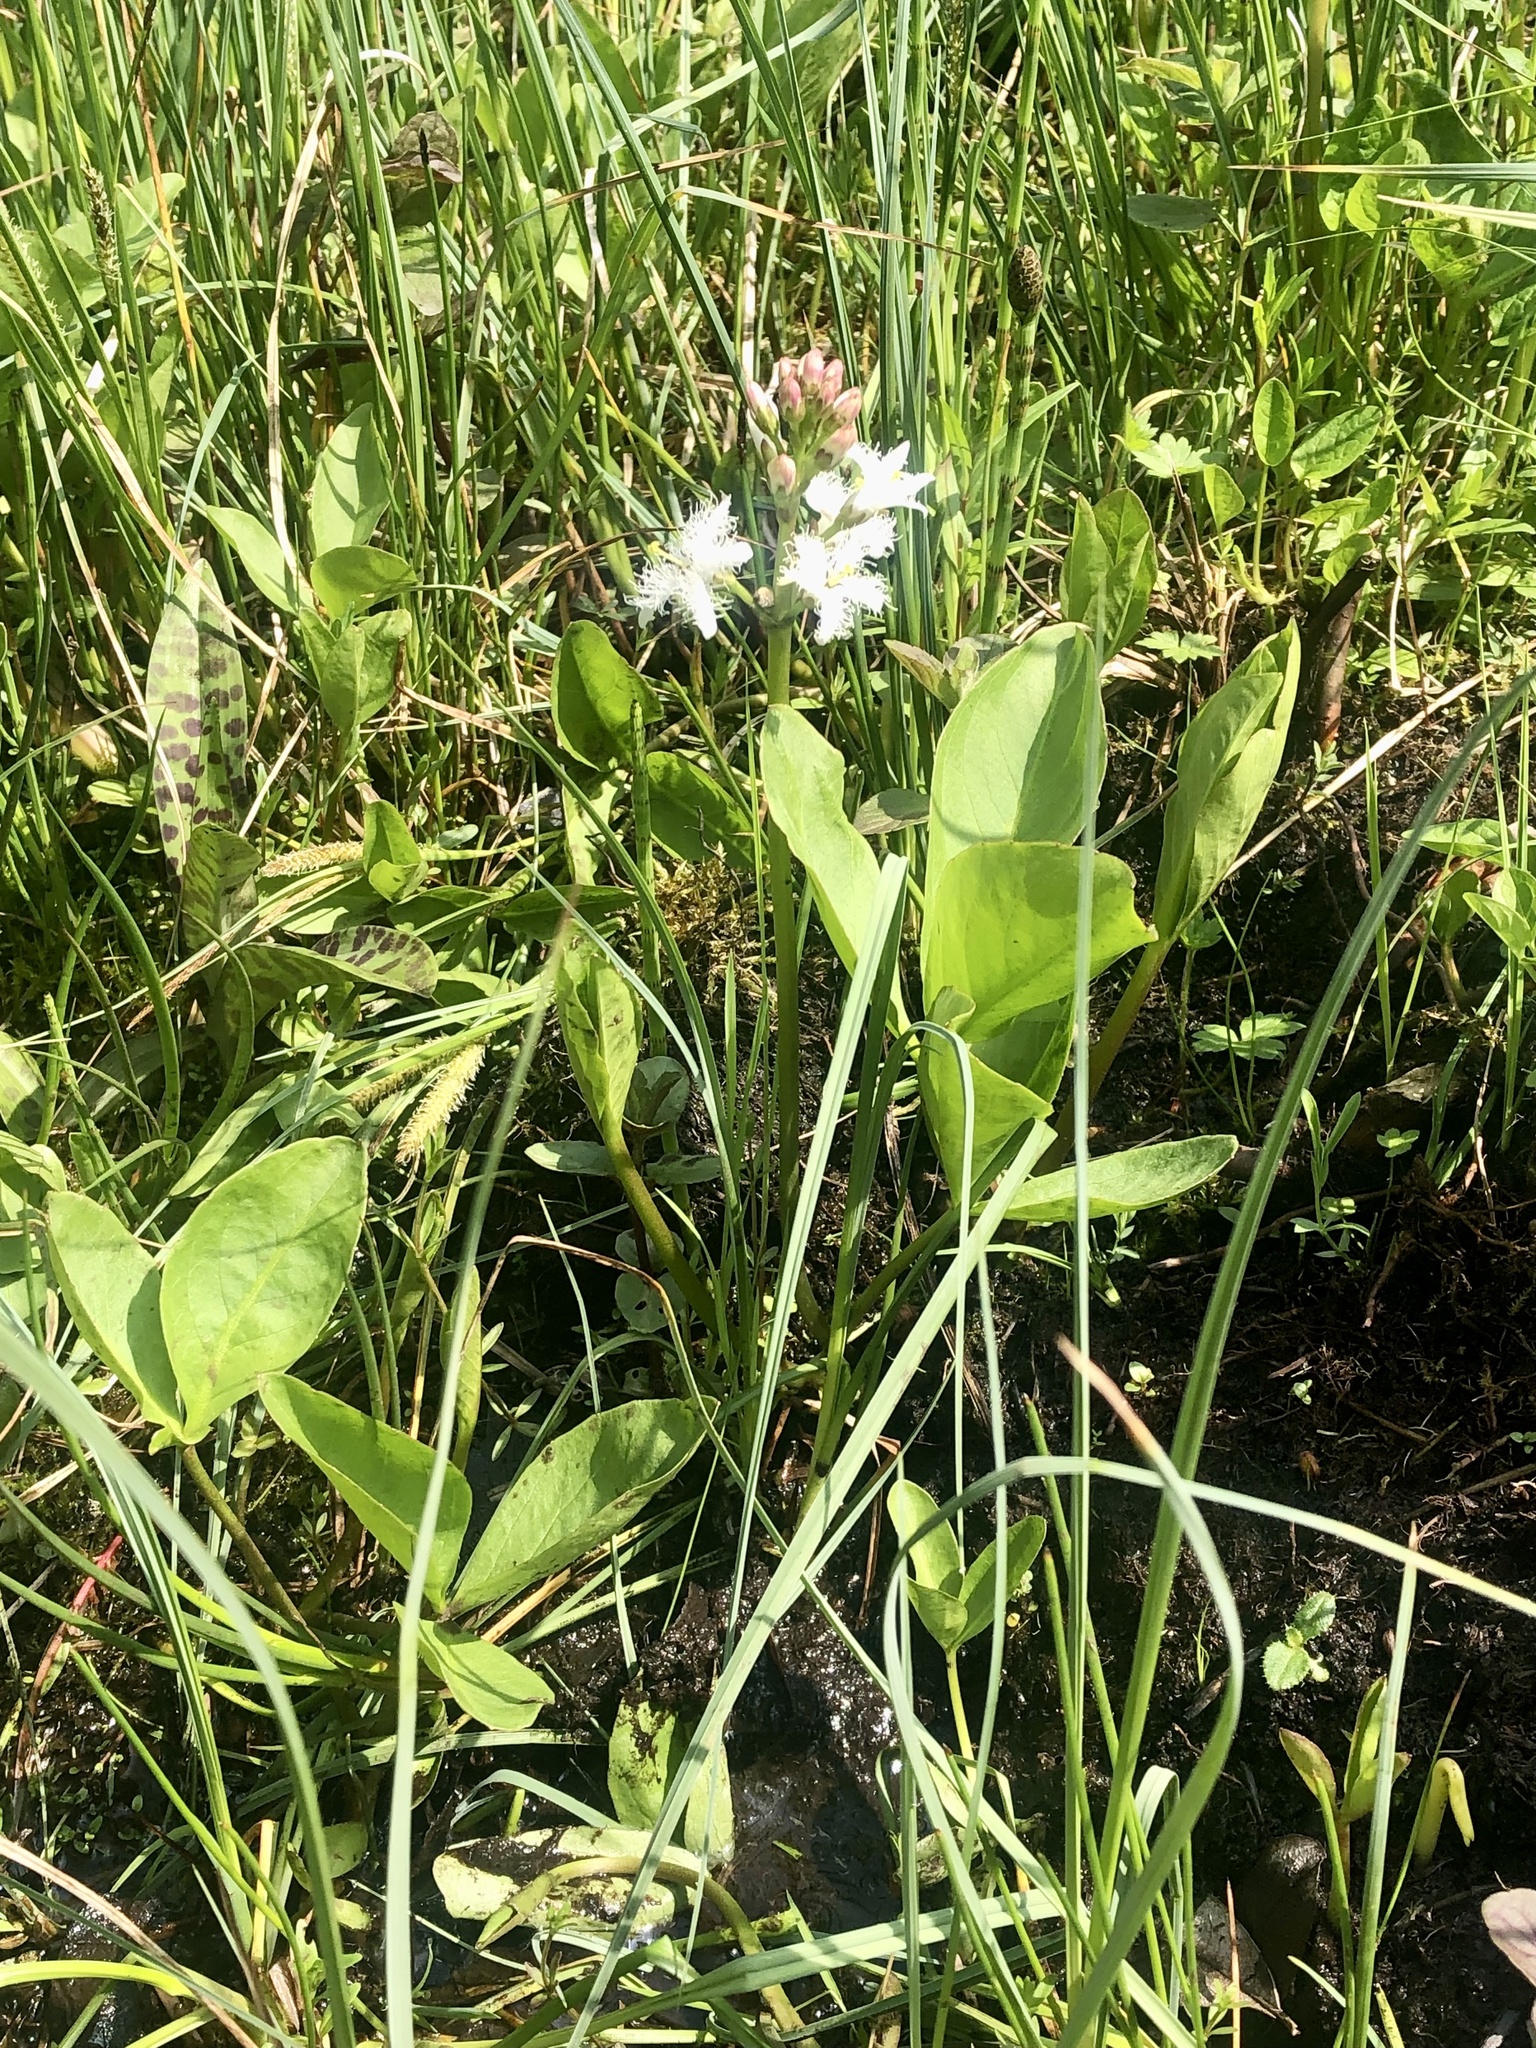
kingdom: Plantae
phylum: Tracheophyta
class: Magnoliopsida
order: Asterales
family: Menyanthaceae
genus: Menyanthes
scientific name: Menyanthes trifoliata
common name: Bogbean
